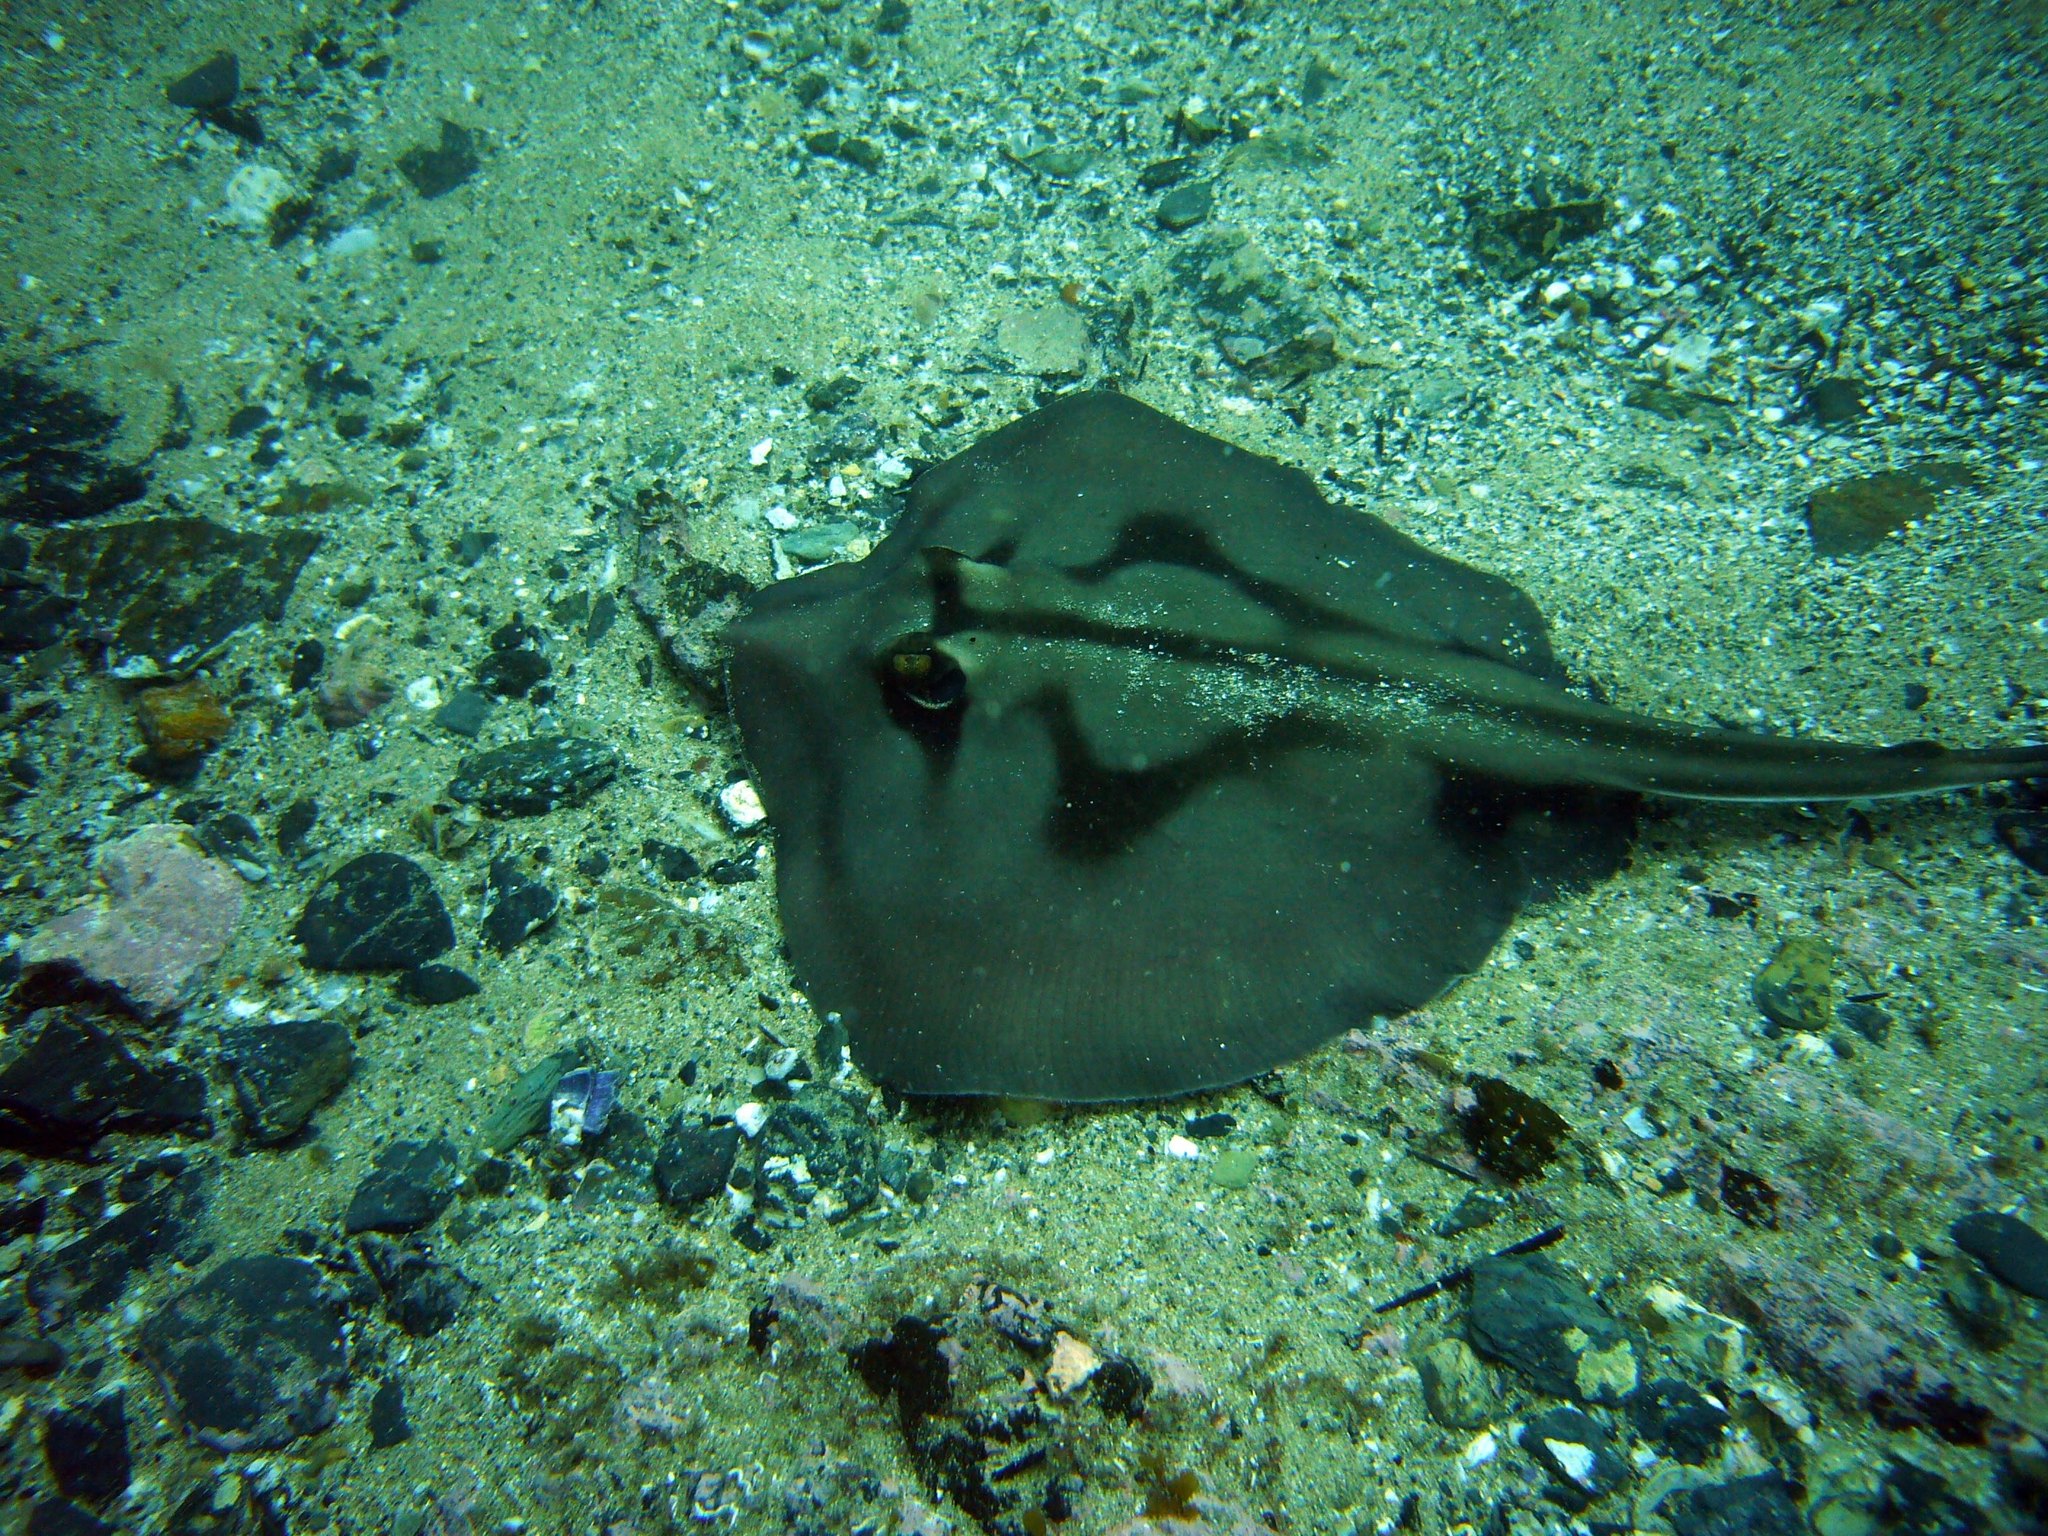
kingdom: Animalia
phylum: Chordata
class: Elasmobranchii
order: Myliobatiformes
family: Urolophidae
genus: Urolophus
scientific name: Urolophus kapalensis
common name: Kapala stingaree
